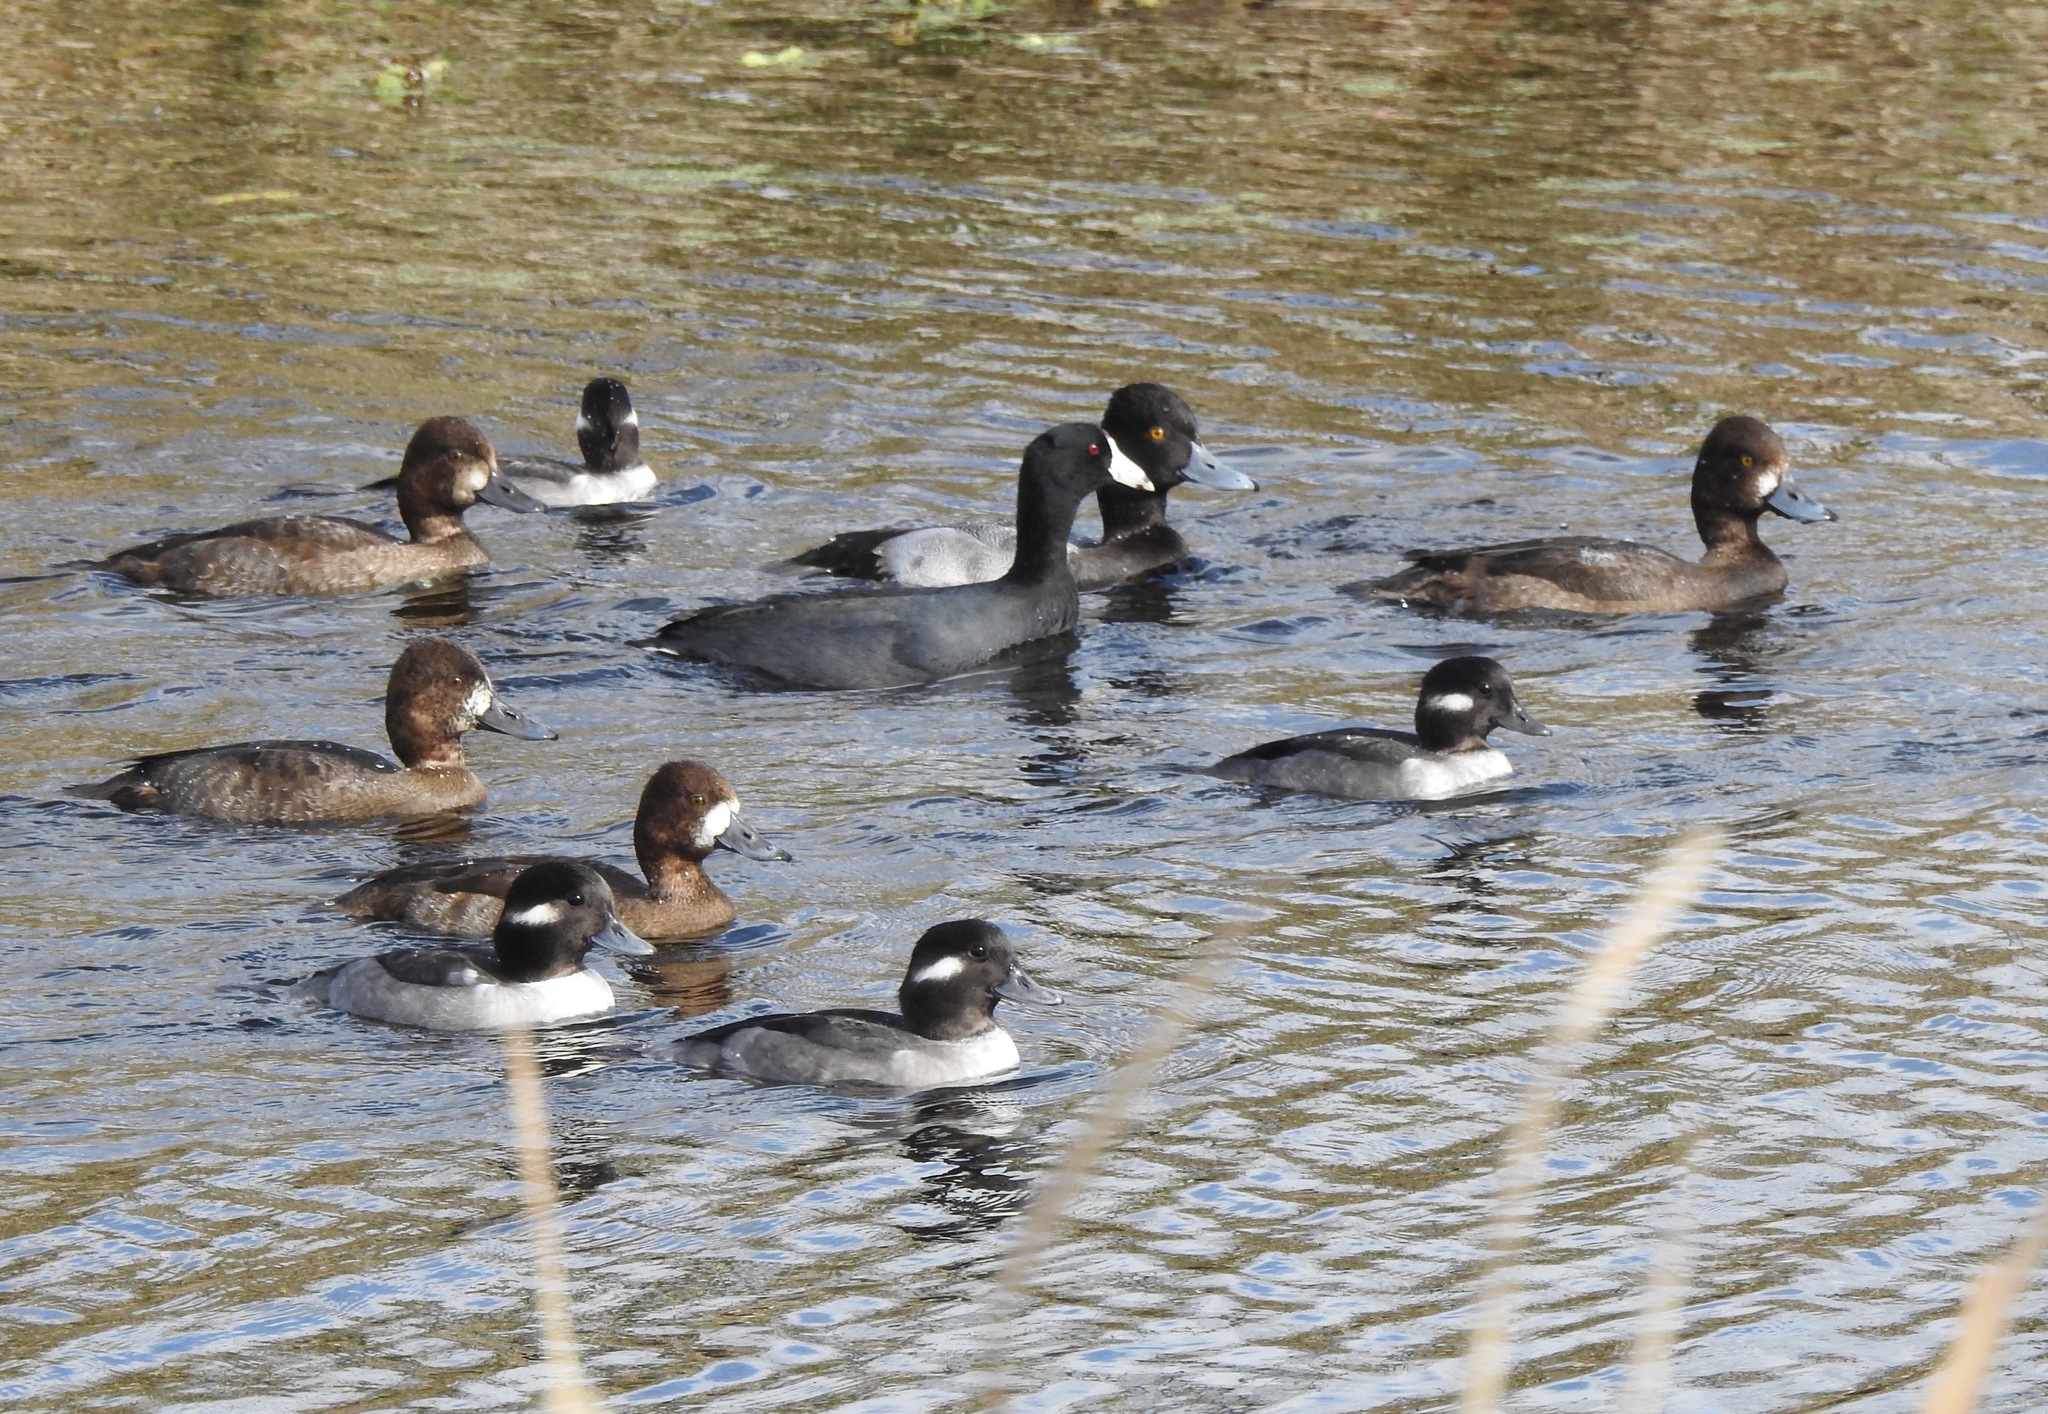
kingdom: Animalia
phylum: Chordata
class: Aves
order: Anseriformes
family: Anatidae
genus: Aythya
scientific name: Aythya affinis
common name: Lesser scaup
